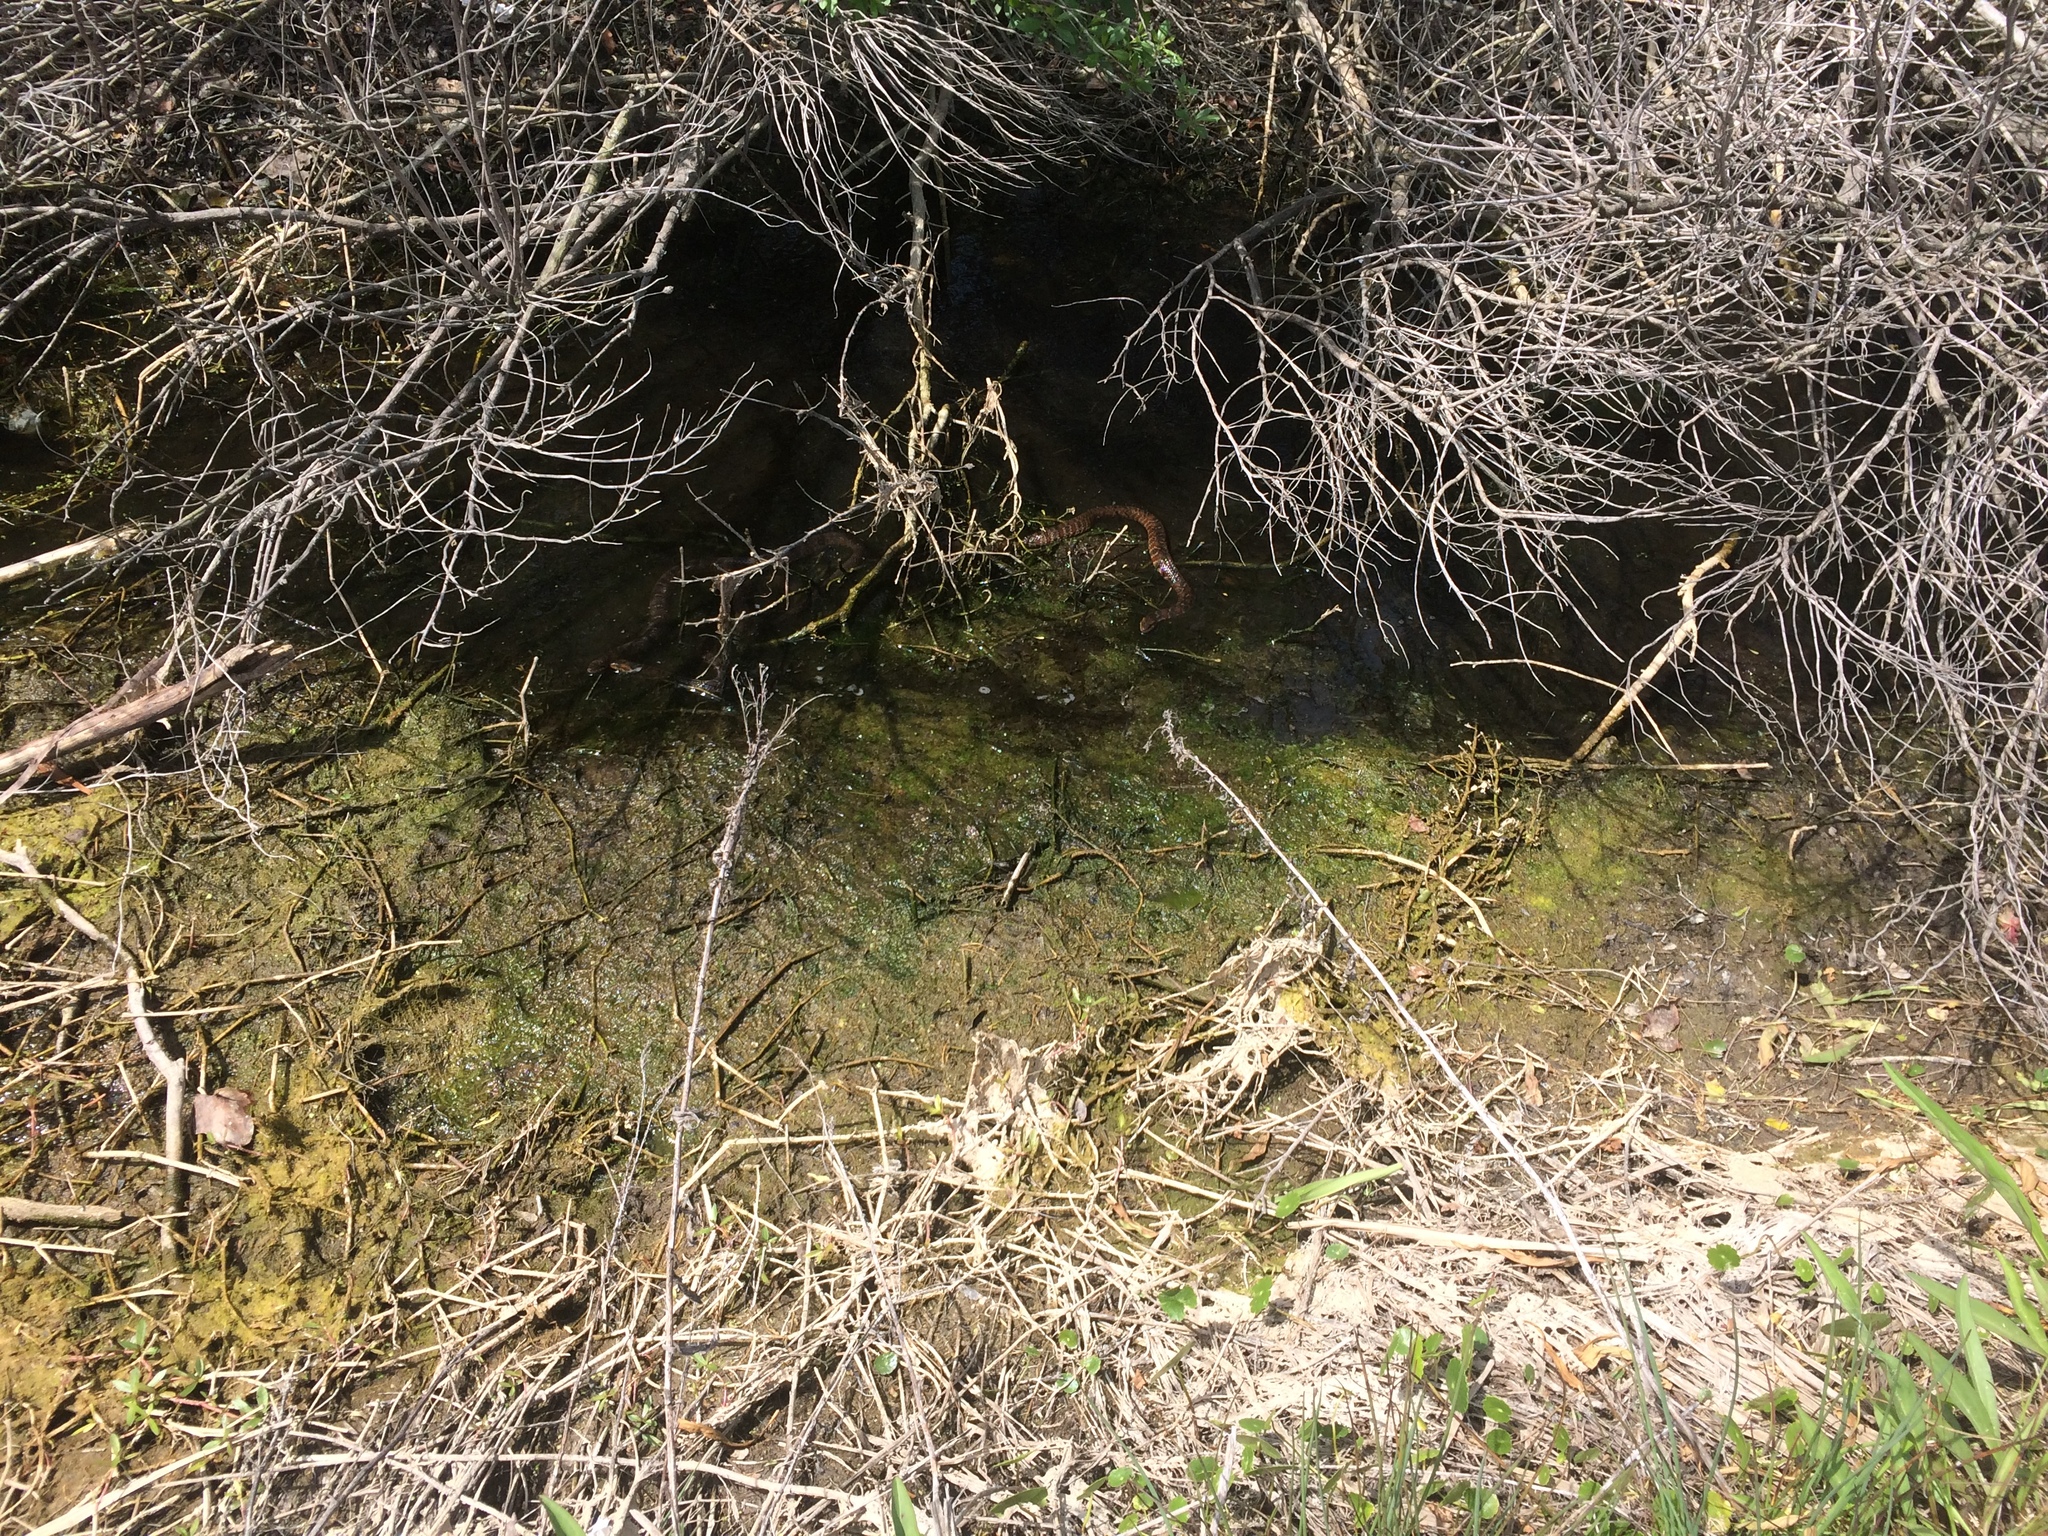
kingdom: Animalia
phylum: Chordata
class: Squamata
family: Colubridae
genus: Nerodia
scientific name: Nerodia fasciata
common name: Southern water snake
